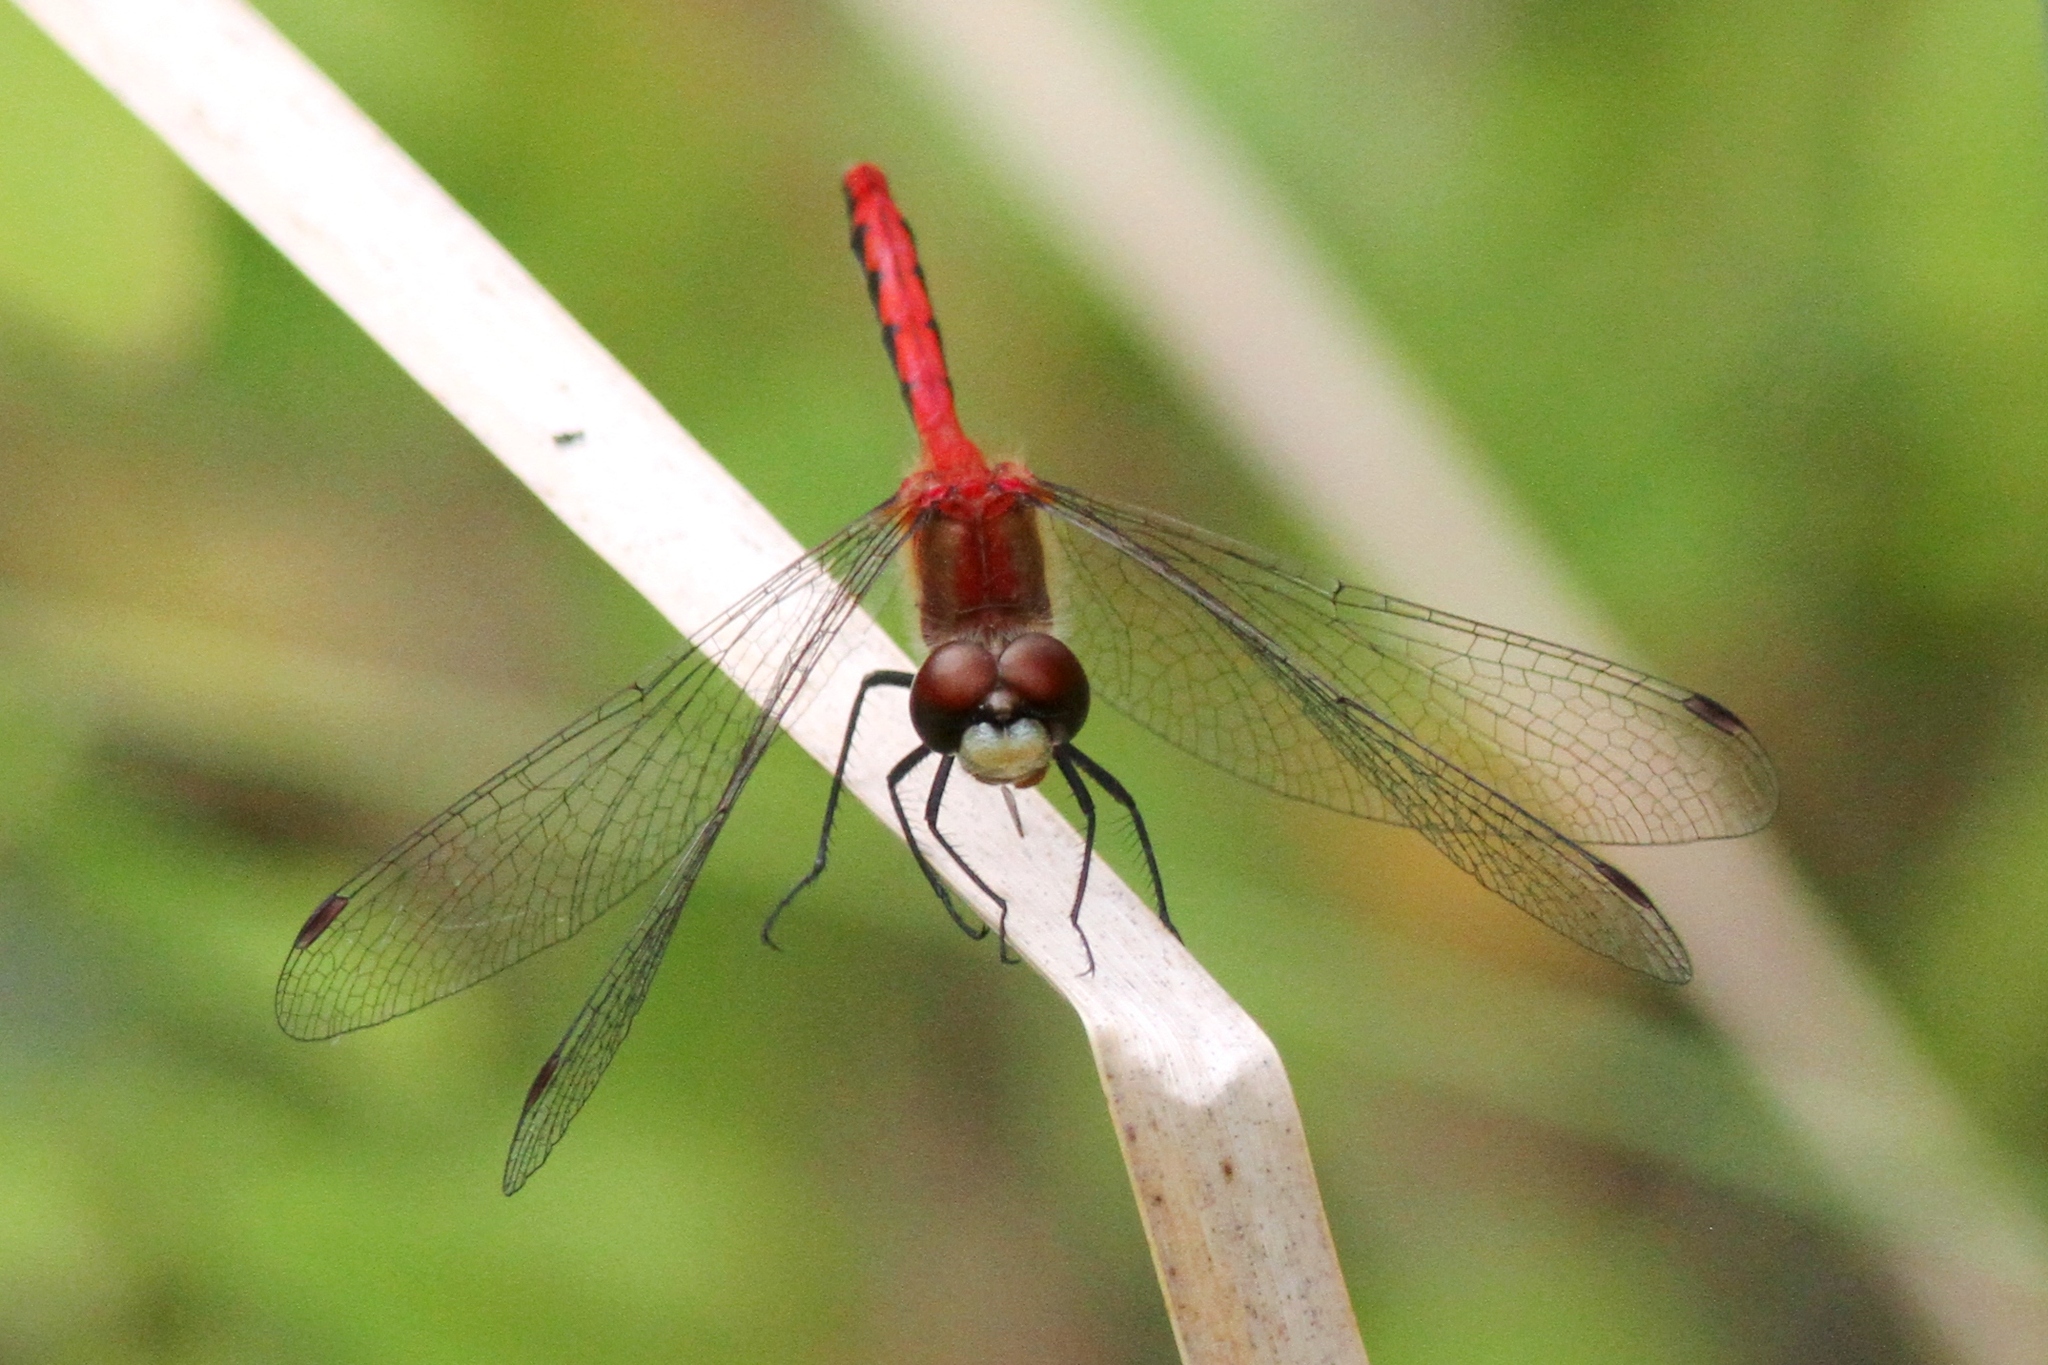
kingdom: Animalia
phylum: Arthropoda
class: Insecta
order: Odonata
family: Libellulidae
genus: Sympetrum
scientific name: Sympetrum obtrusum
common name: White-faced meadowhawk
